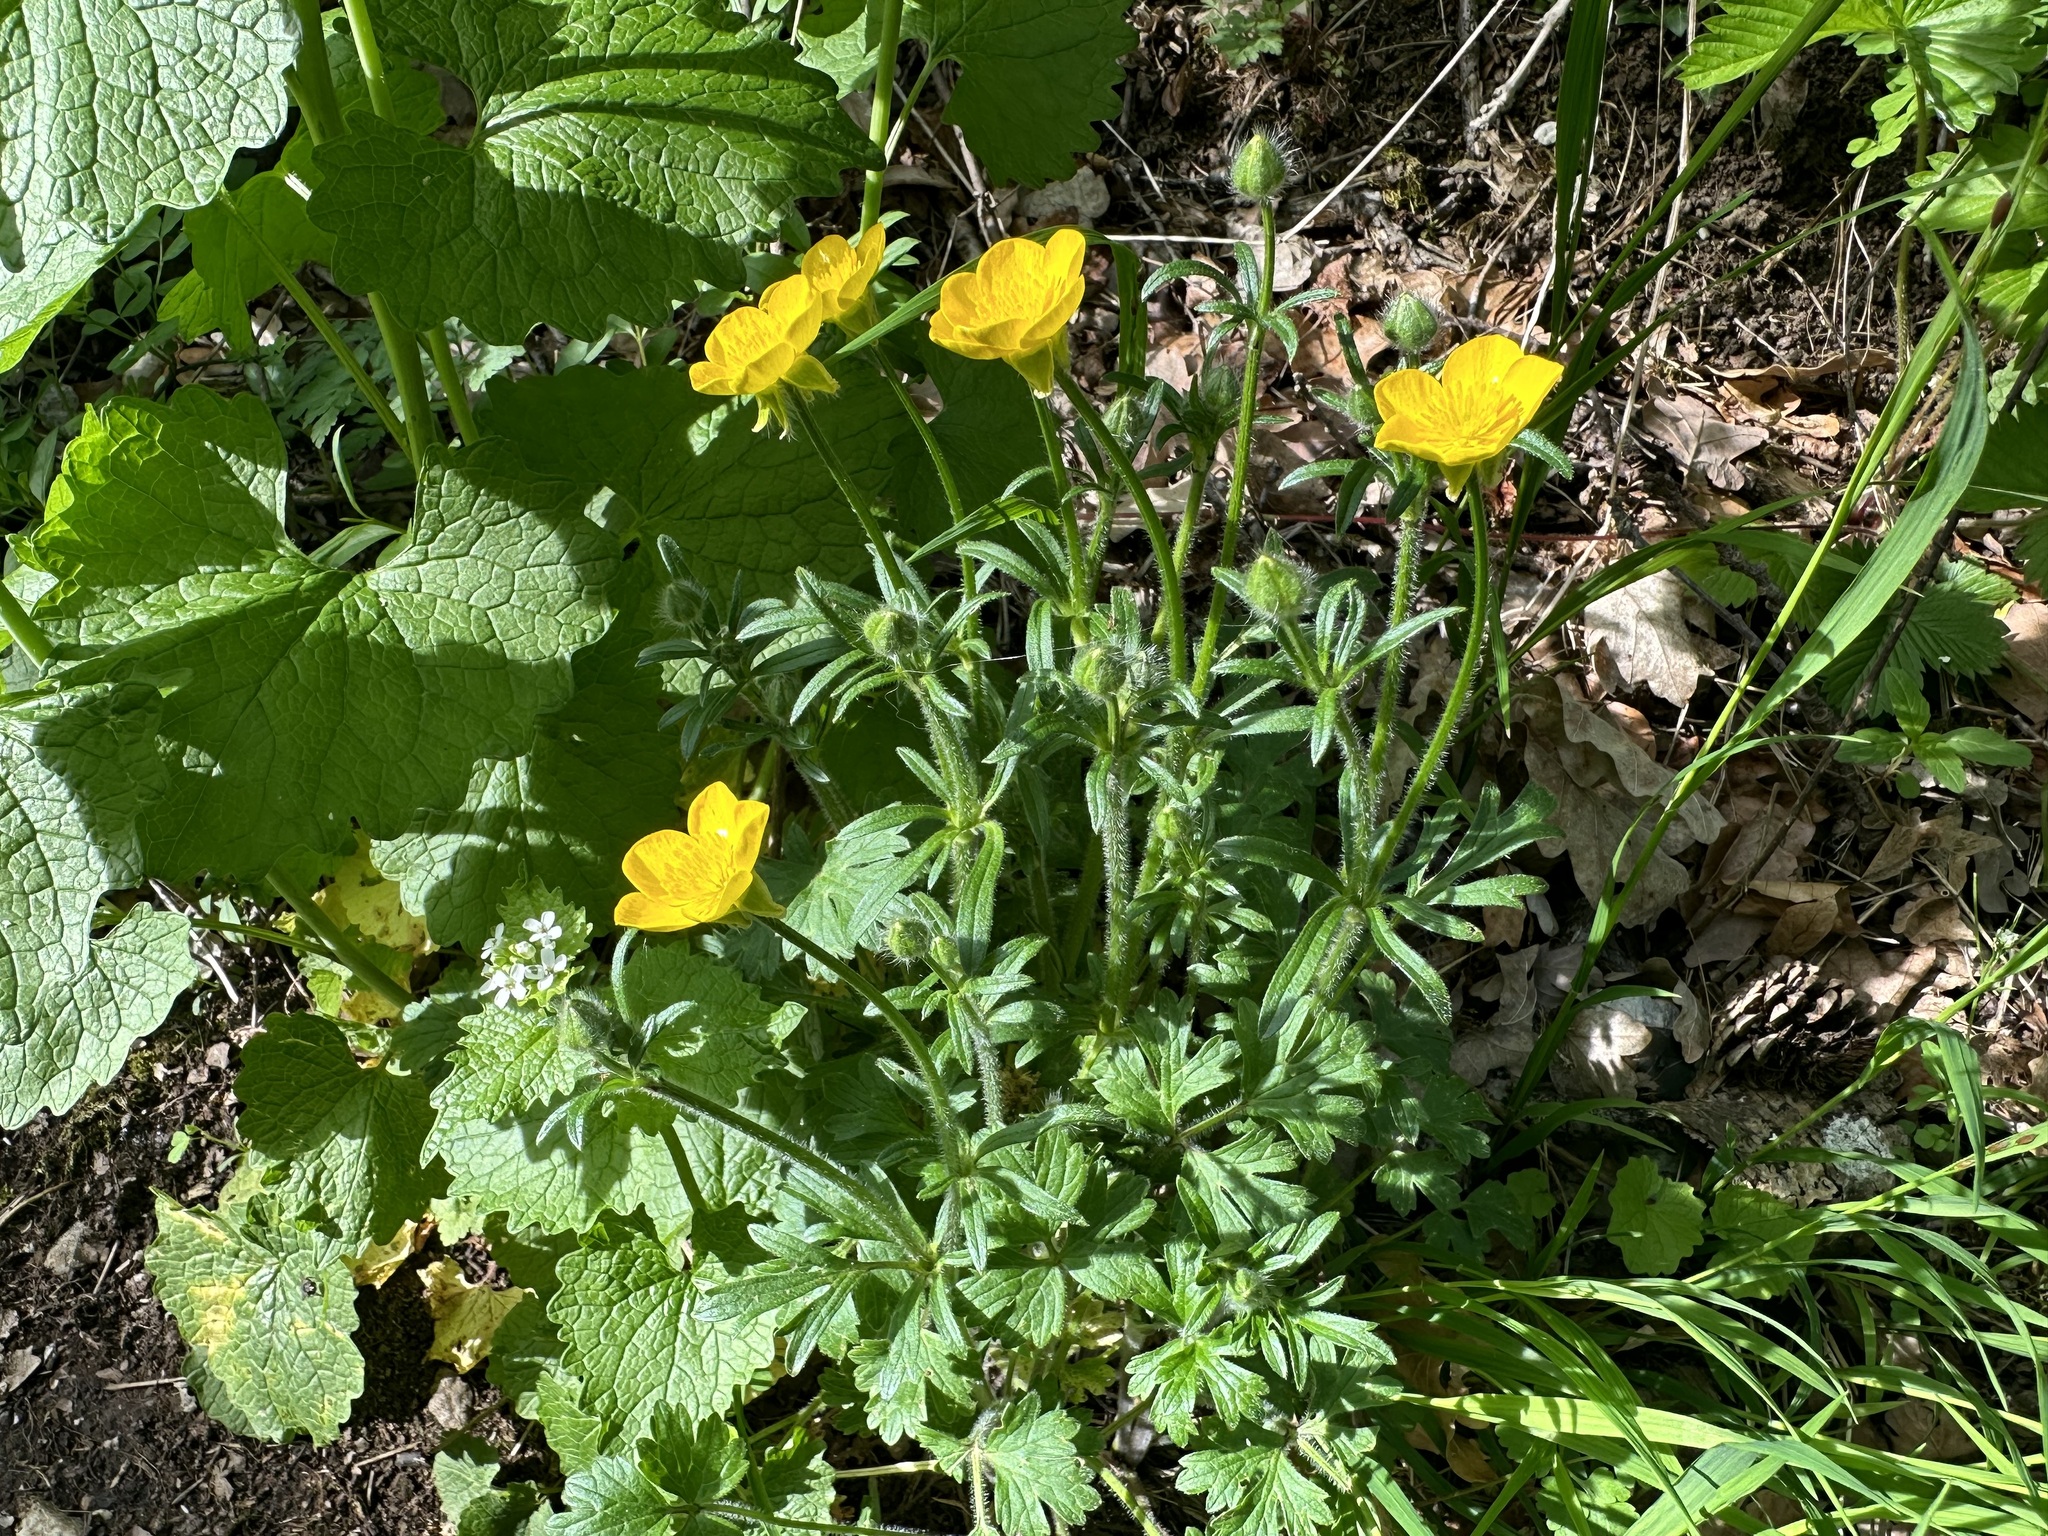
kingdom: Plantae
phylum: Tracheophyta
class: Magnoliopsida
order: Ranunculales
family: Ranunculaceae
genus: Ranunculus
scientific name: Ranunculus bulbosus
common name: Bulbous buttercup
